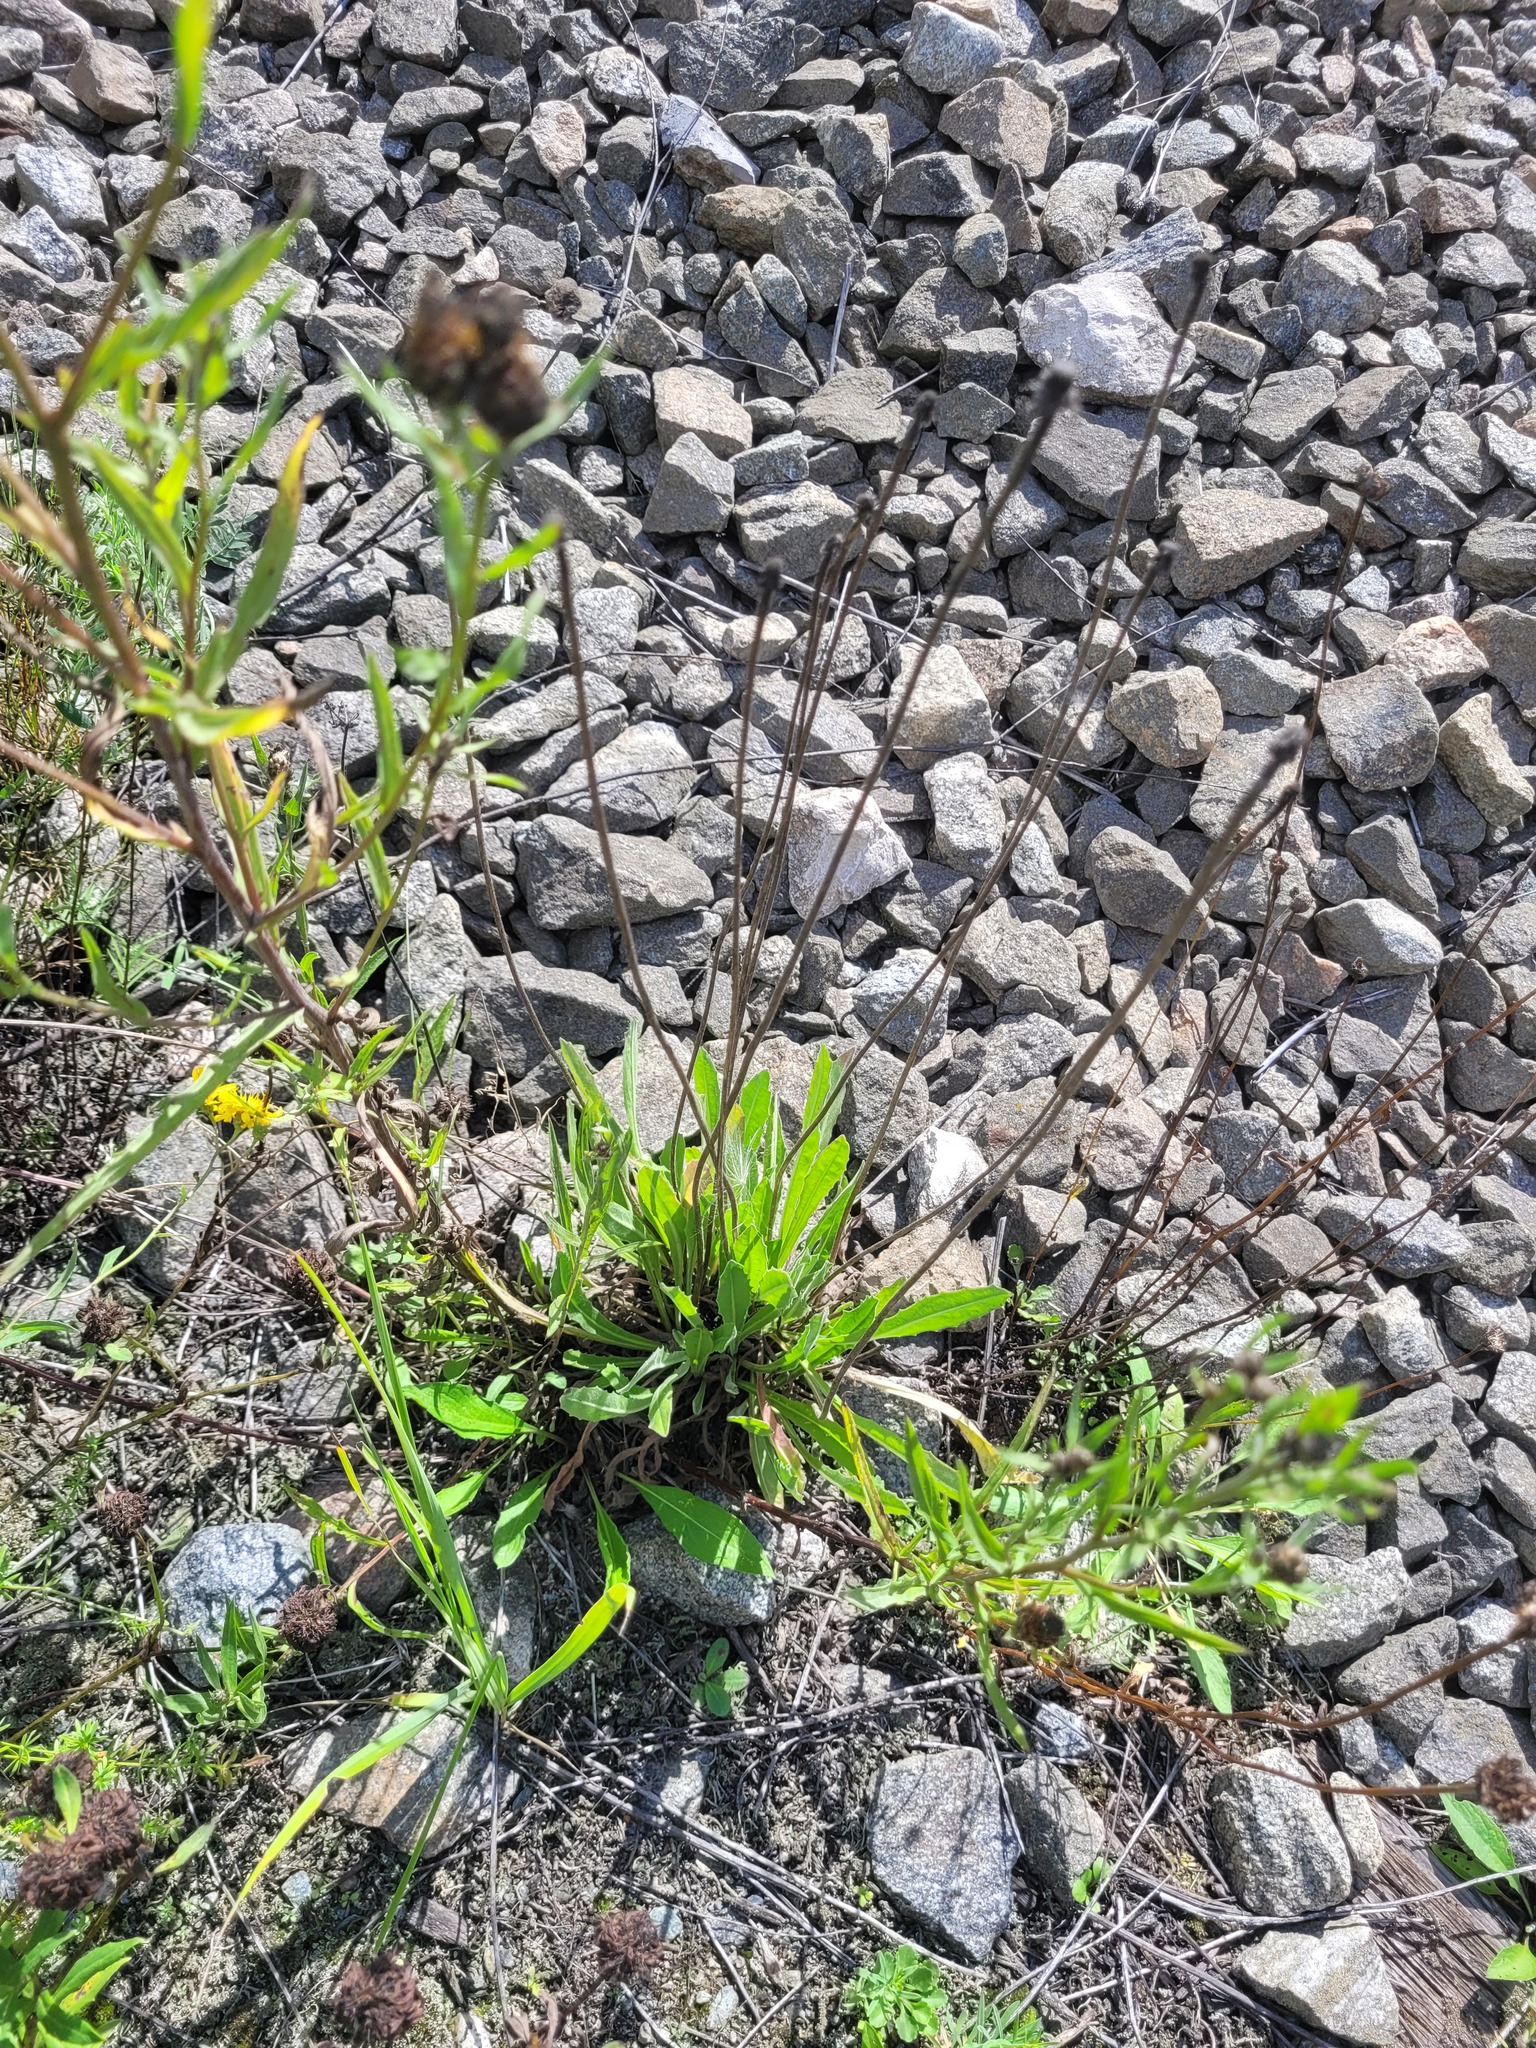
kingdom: Plantae
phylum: Tracheophyta
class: Magnoliopsida
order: Asterales
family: Asteraceae
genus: Leontodon
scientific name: Leontodon hispidus
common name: Rough hawkbit
